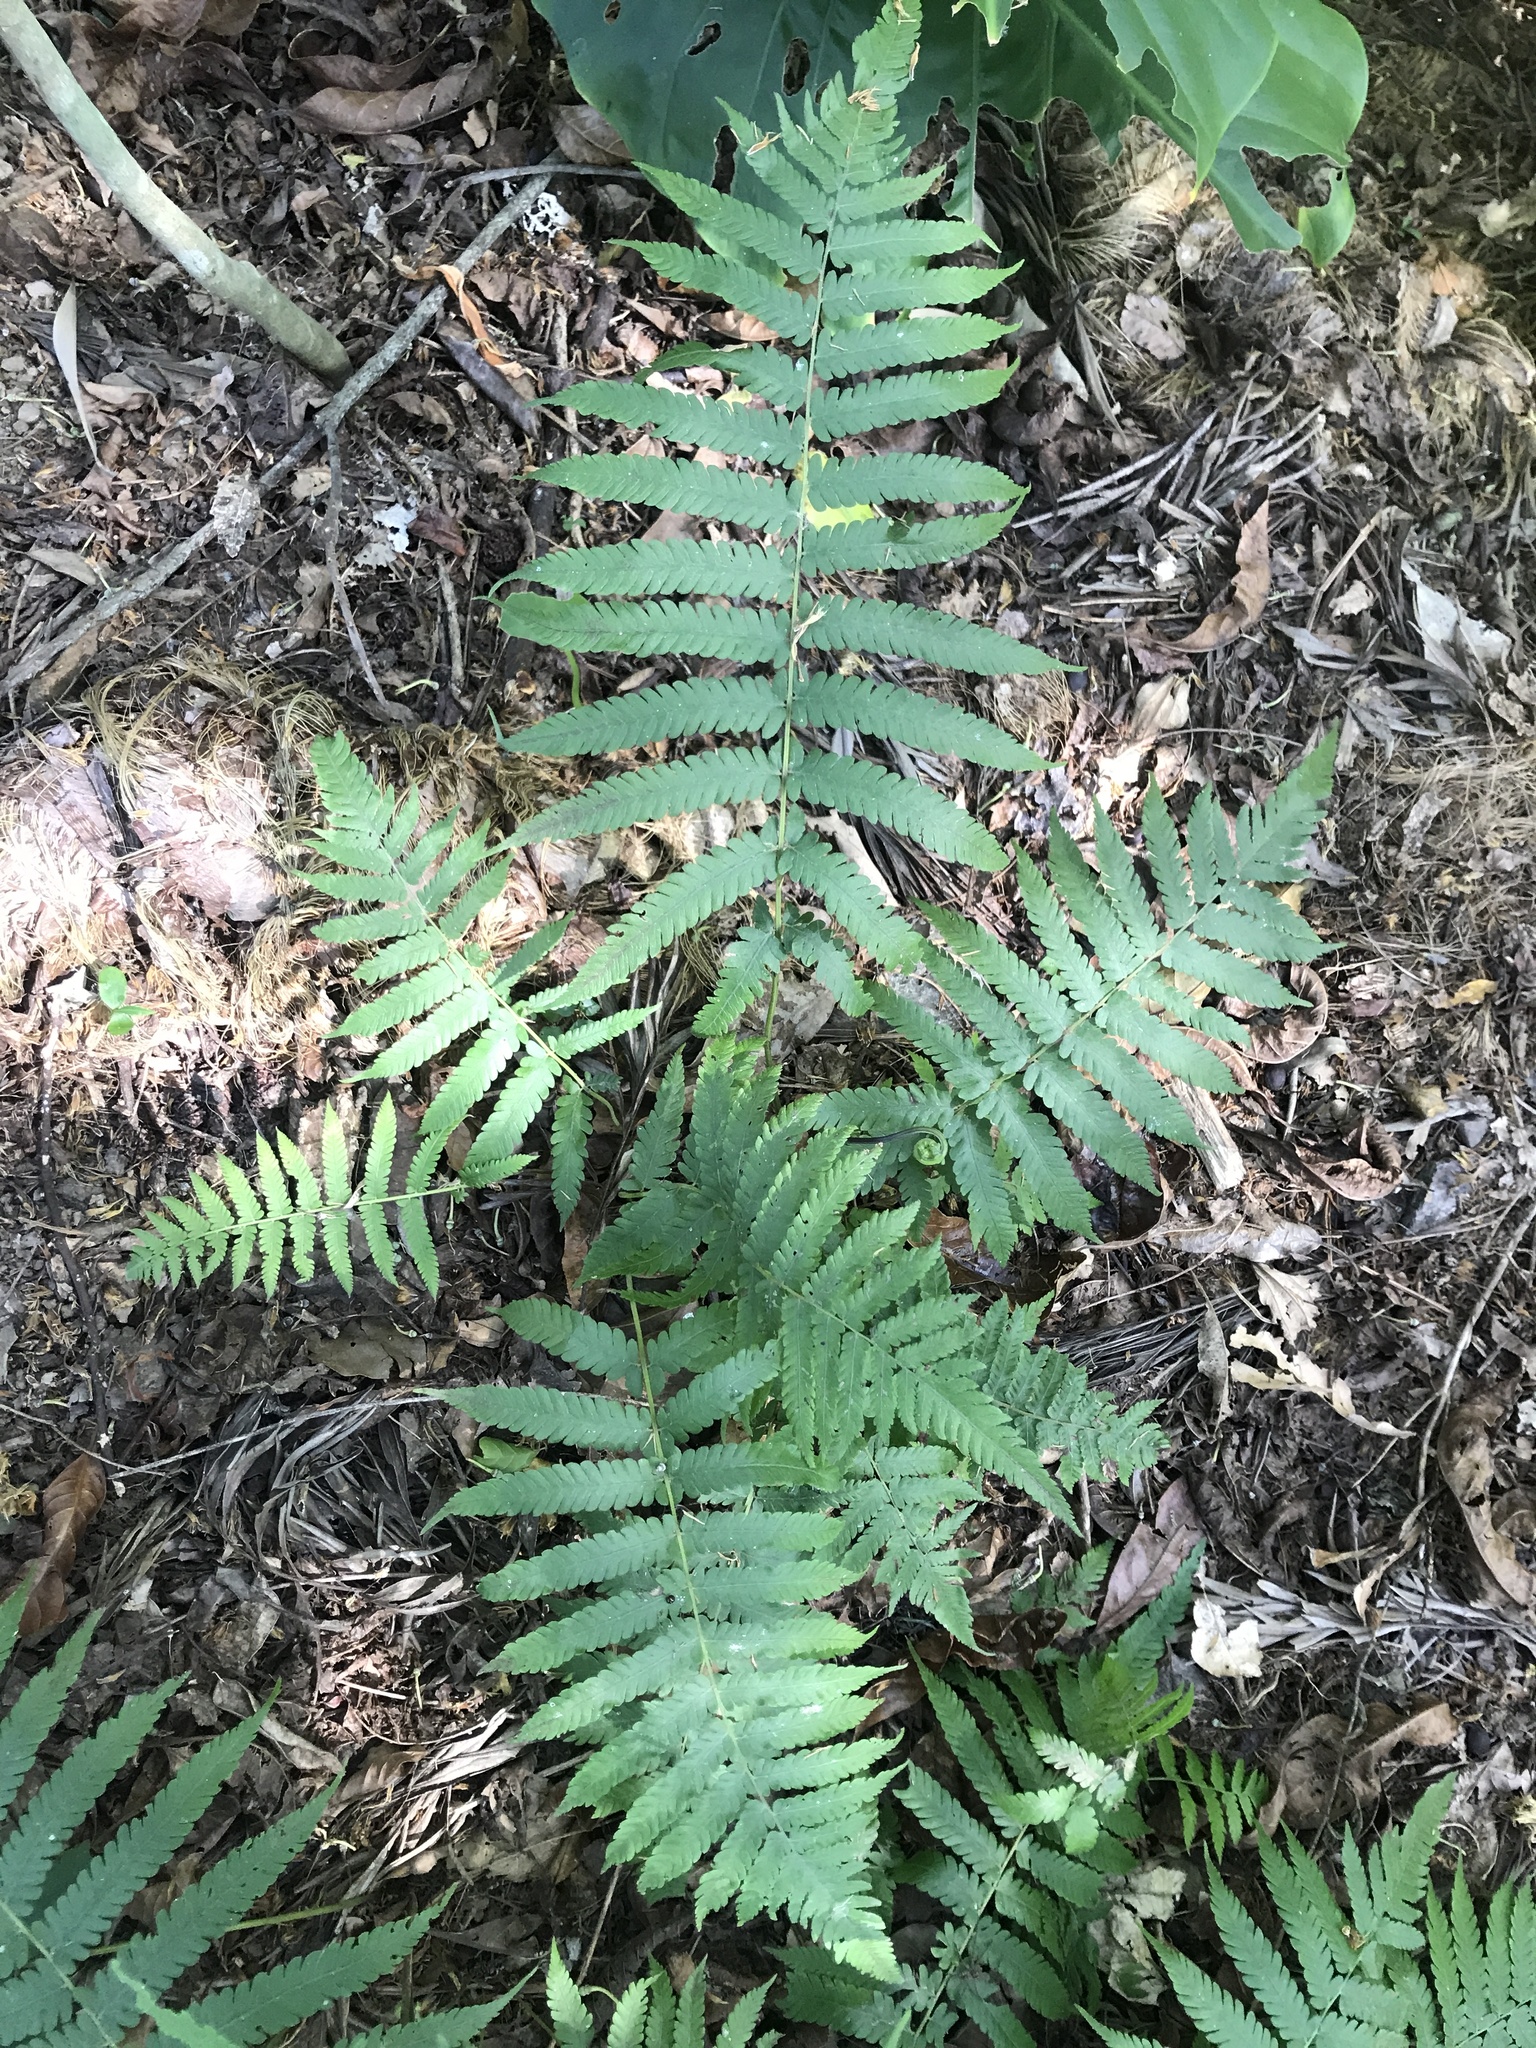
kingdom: Plantae
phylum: Tracheophyta
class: Polypodiopsida
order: Polypodiales
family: Thelypteridaceae
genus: Christella
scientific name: Christella dentata
